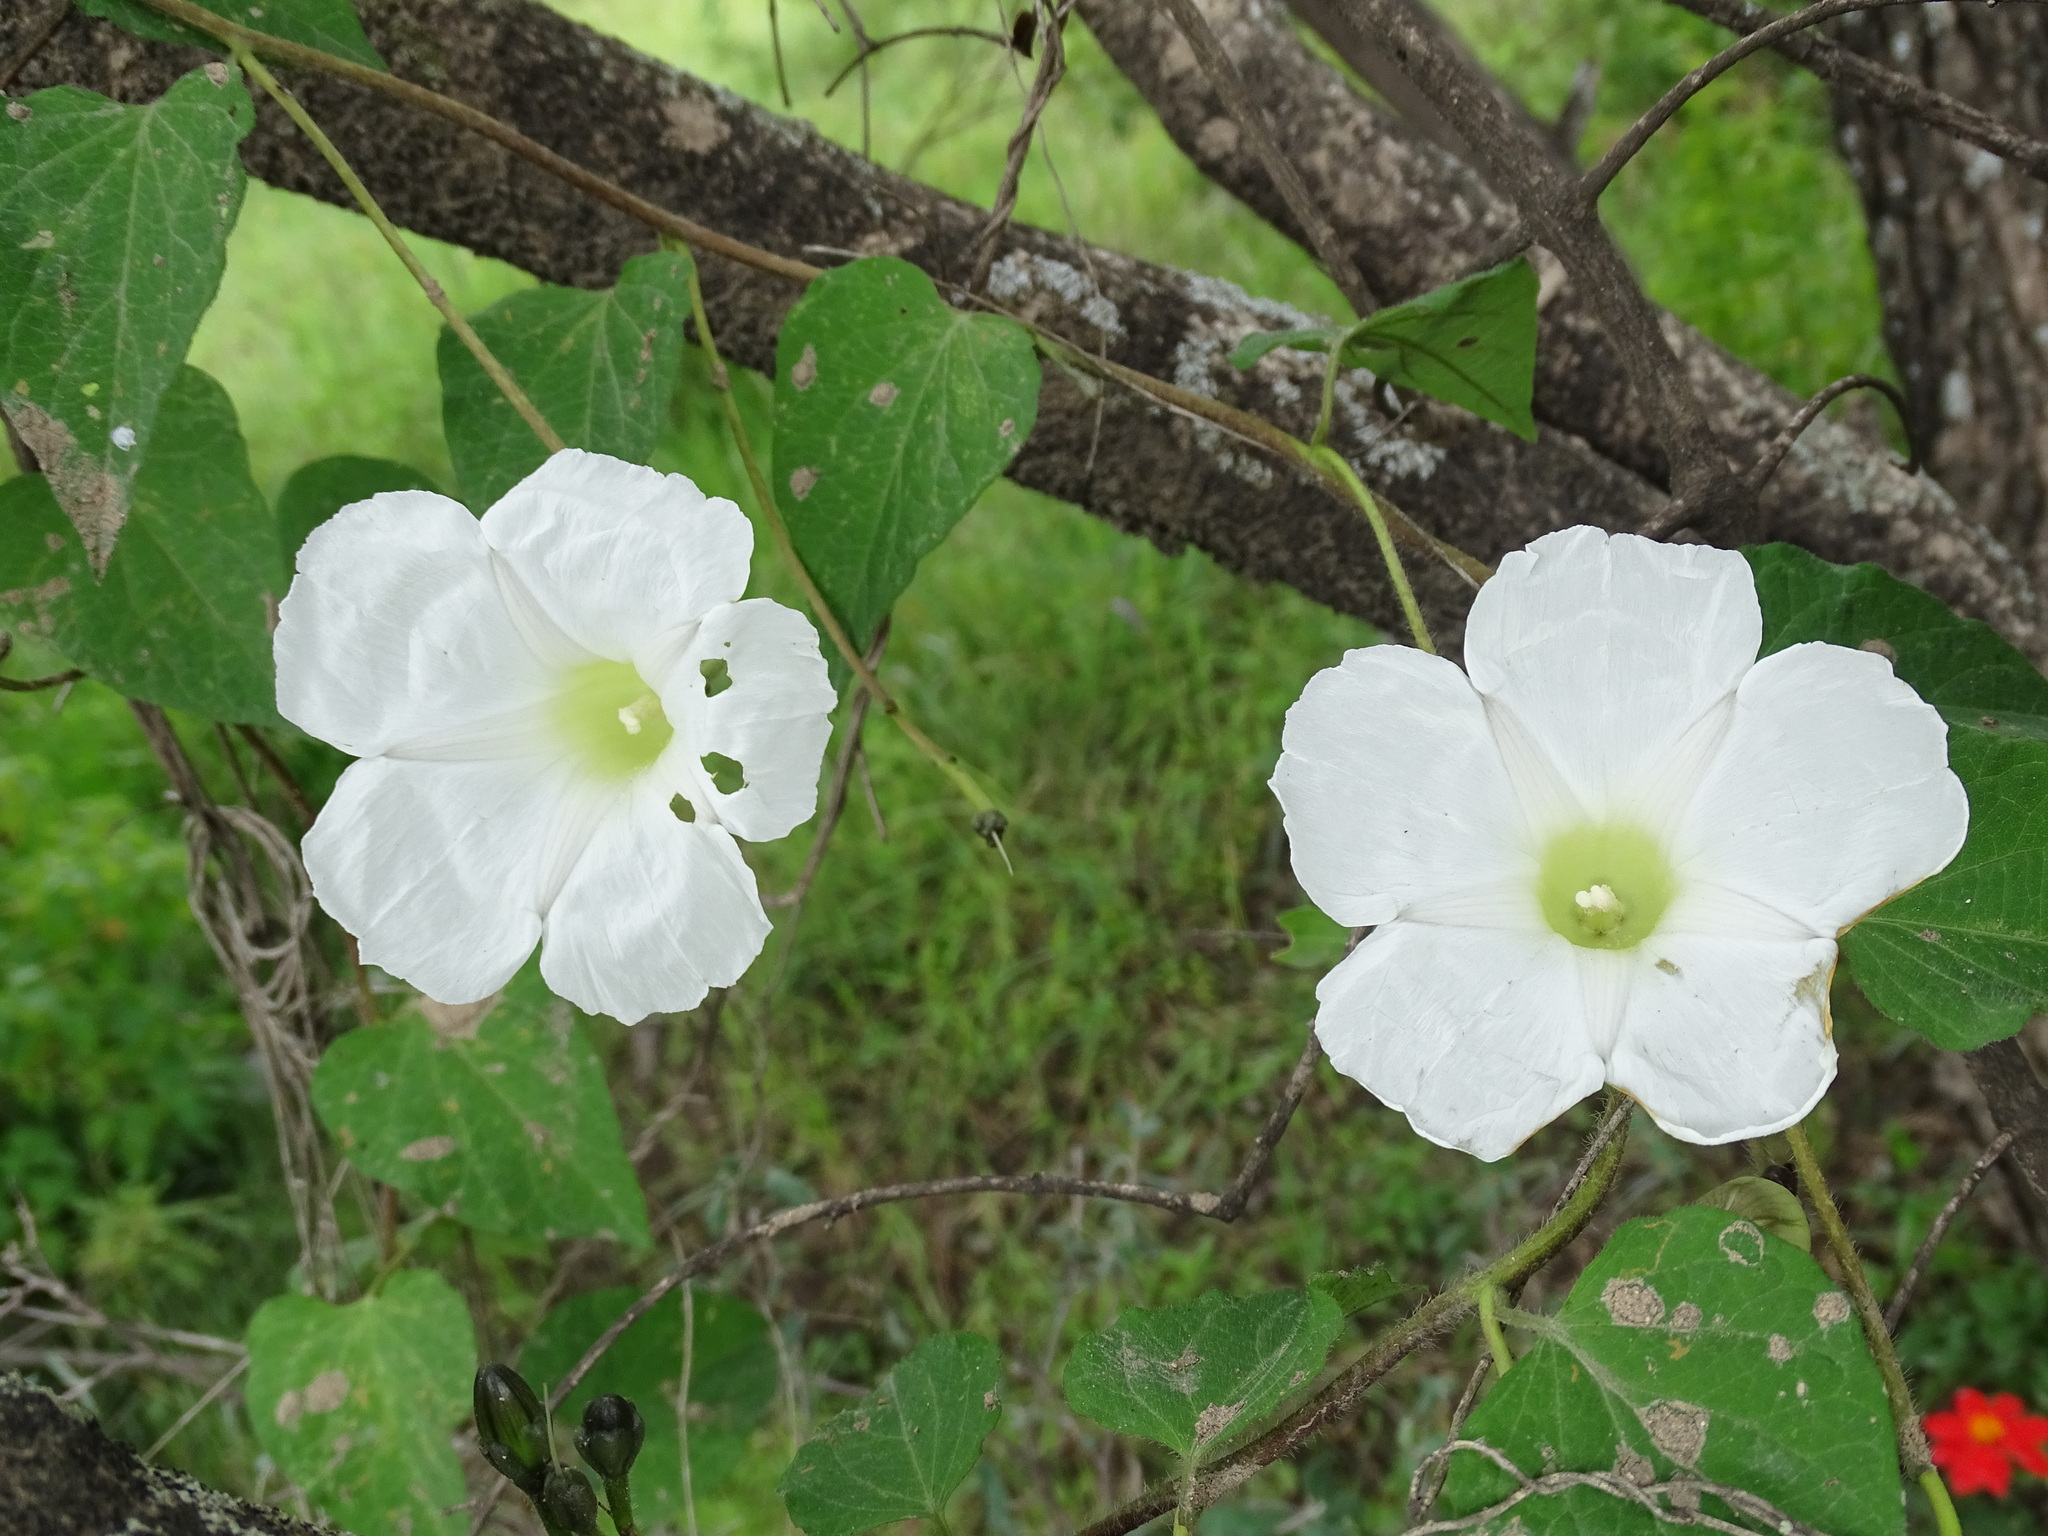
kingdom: Plantae
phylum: Tracheophyta
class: Magnoliopsida
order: Solanales
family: Convolvulaceae
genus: Ipomoea
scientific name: Ipomoea proxima
